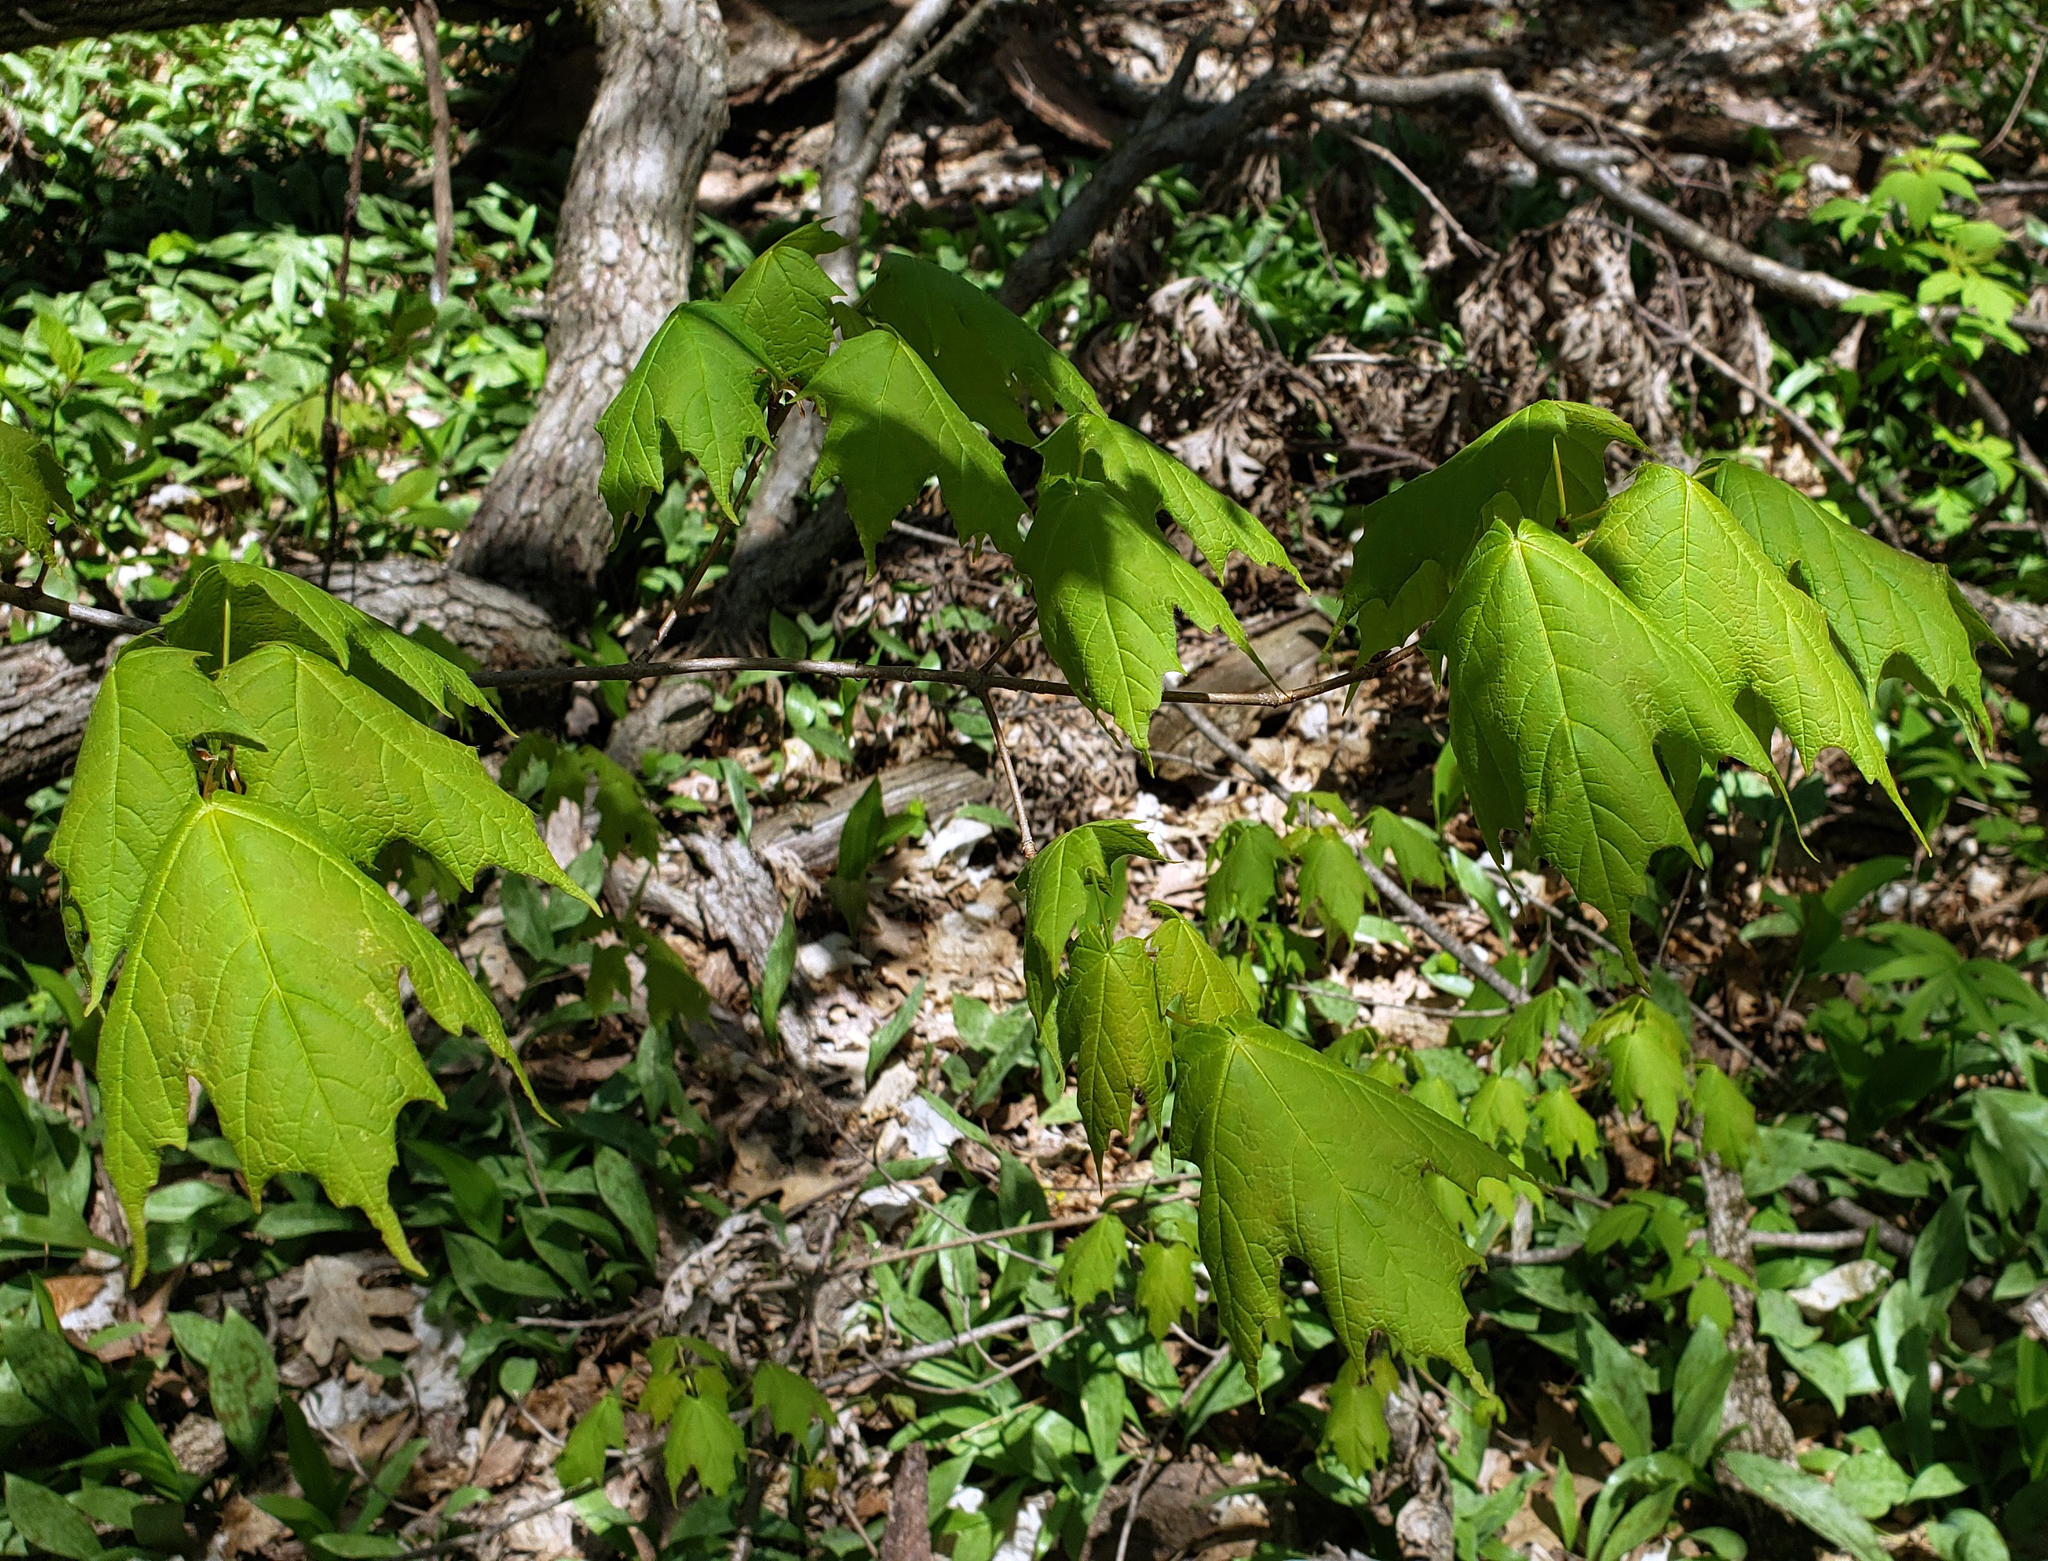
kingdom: Plantae
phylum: Tracheophyta
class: Magnoliopsida
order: Sapindales
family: Sapindaceae
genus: Acer
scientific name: Acer saccharum
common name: Sugar maple
